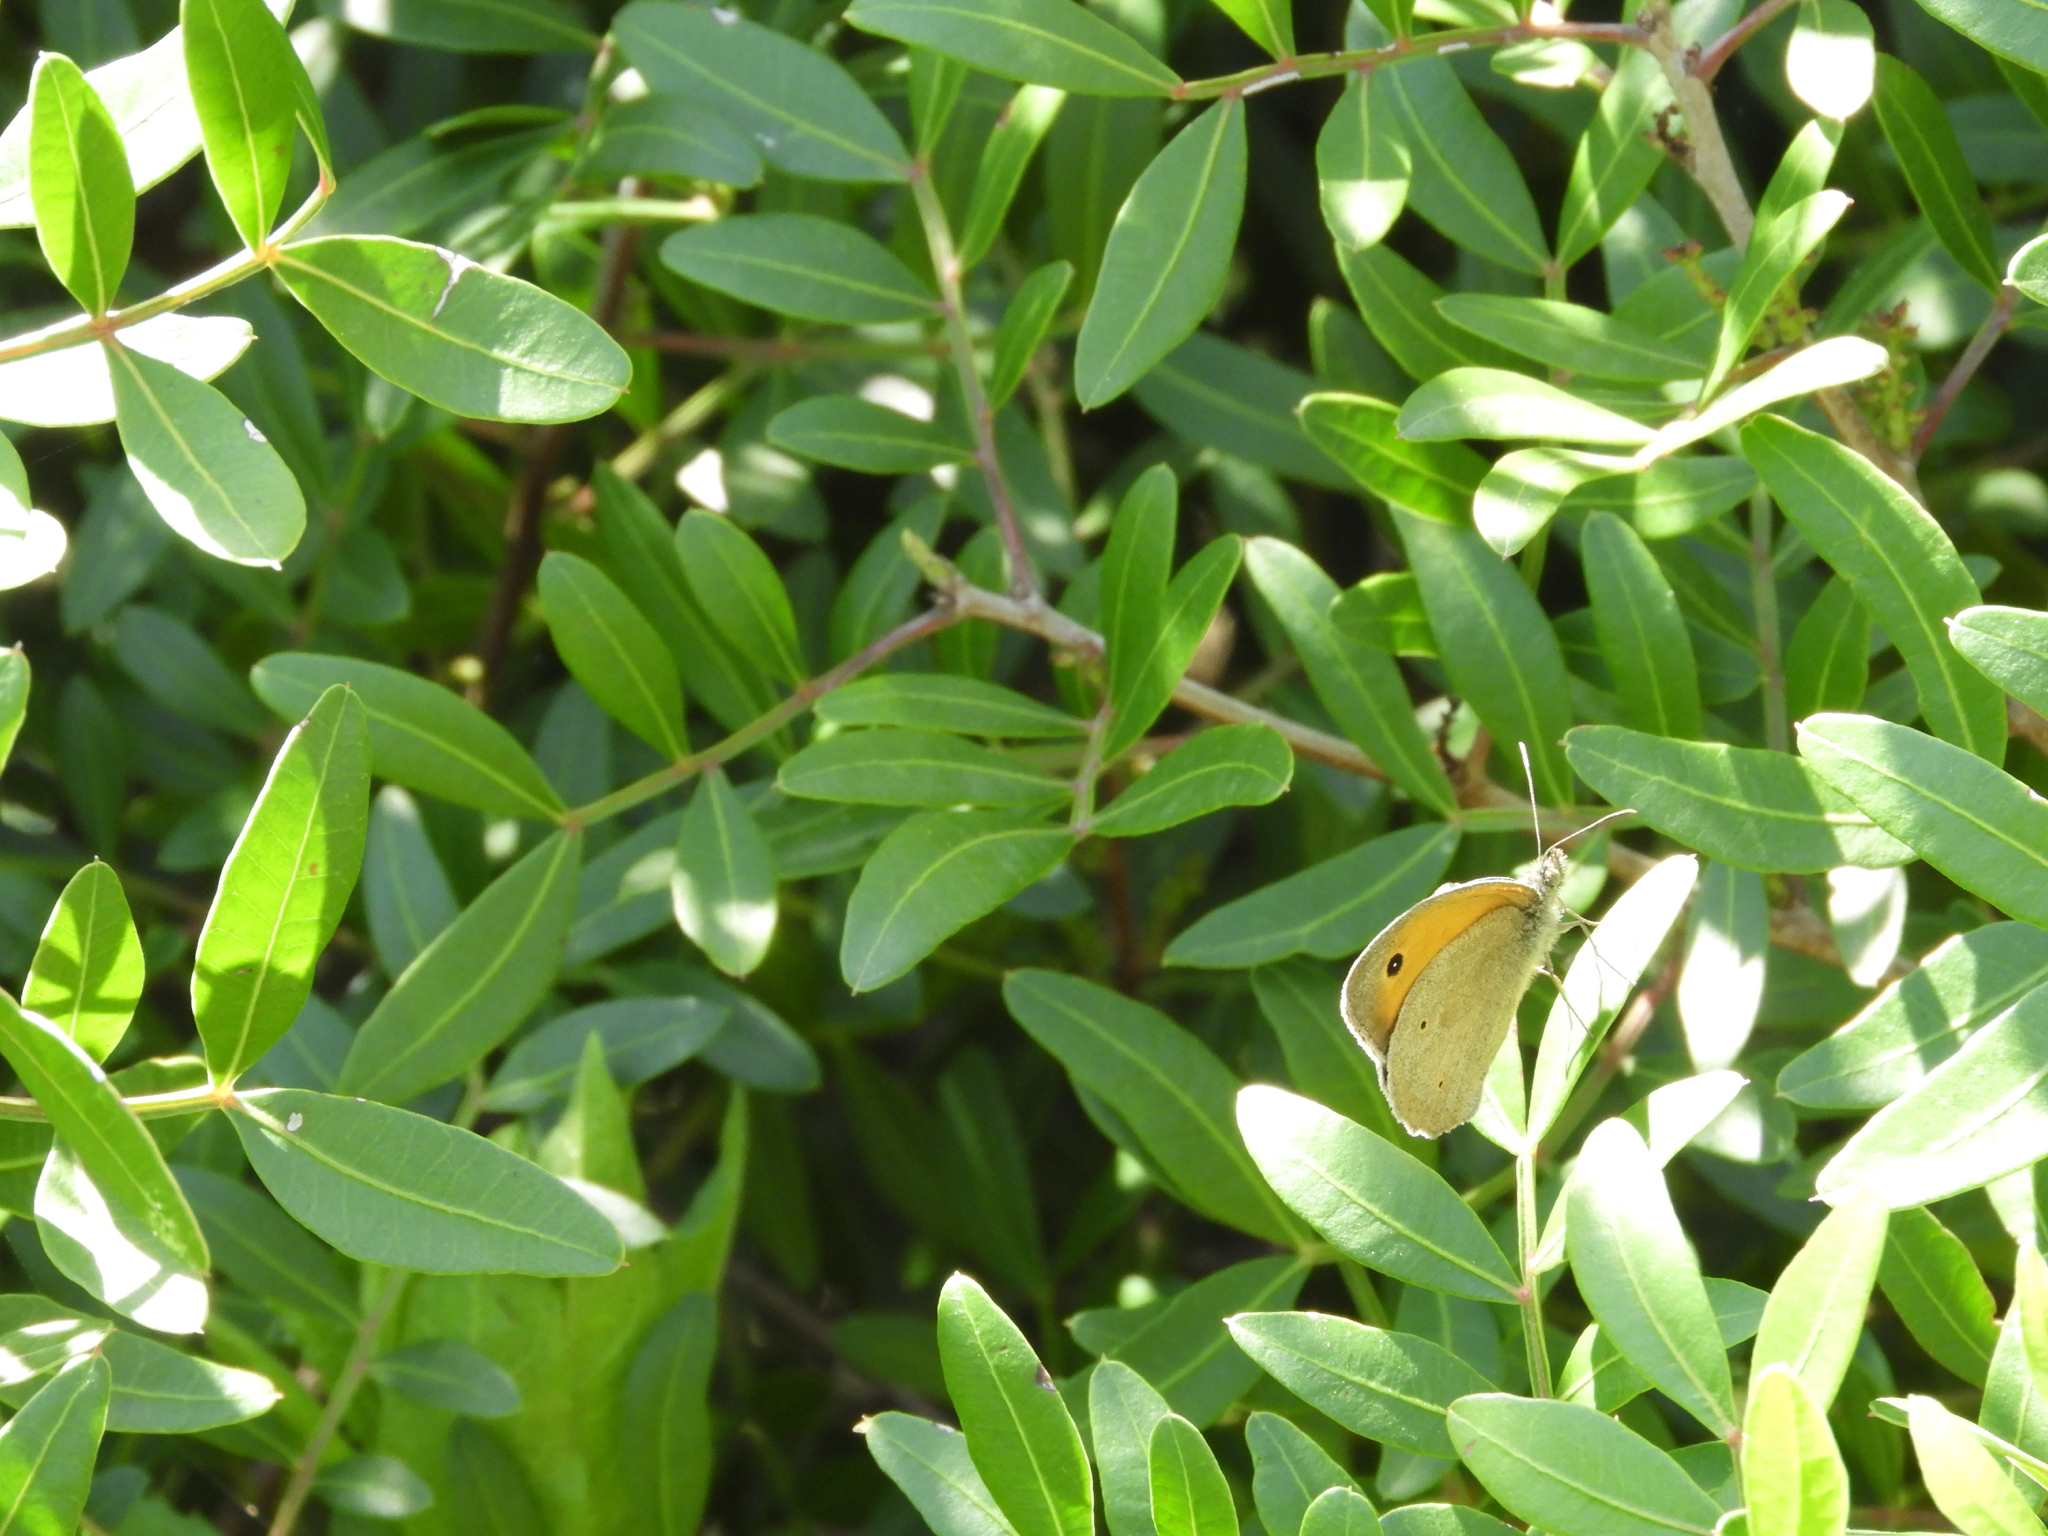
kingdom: Animalia
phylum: Arthropoda
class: Insecta
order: Lepidoptera
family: Nymphalidae
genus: Maniola
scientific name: Maniola jurtina
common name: Meadow brown
